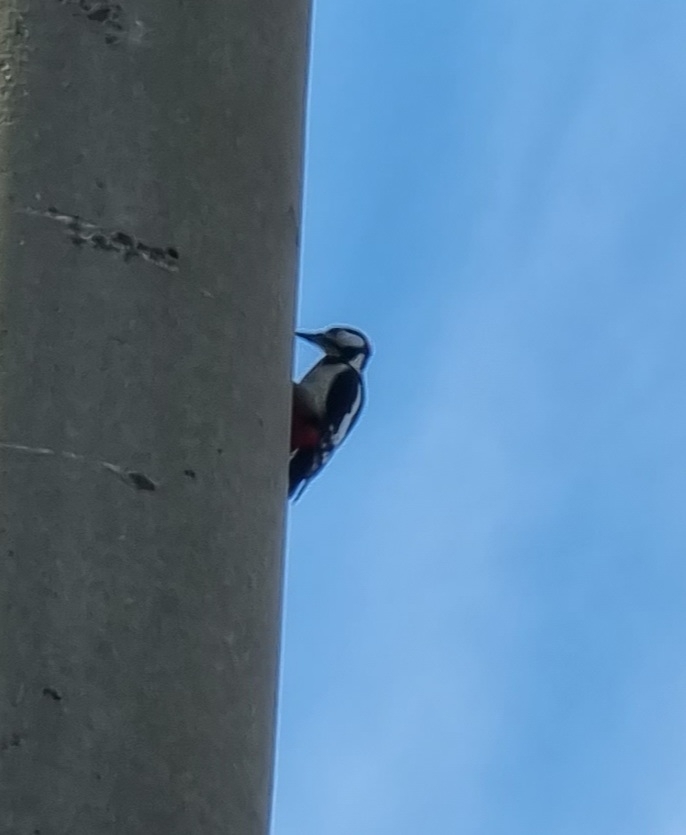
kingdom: Animalia
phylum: Chordata
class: Aves
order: Piciformes
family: Picidae
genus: Dendrocopos
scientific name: Dendrocopos major
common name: Great spotted woodpecker
